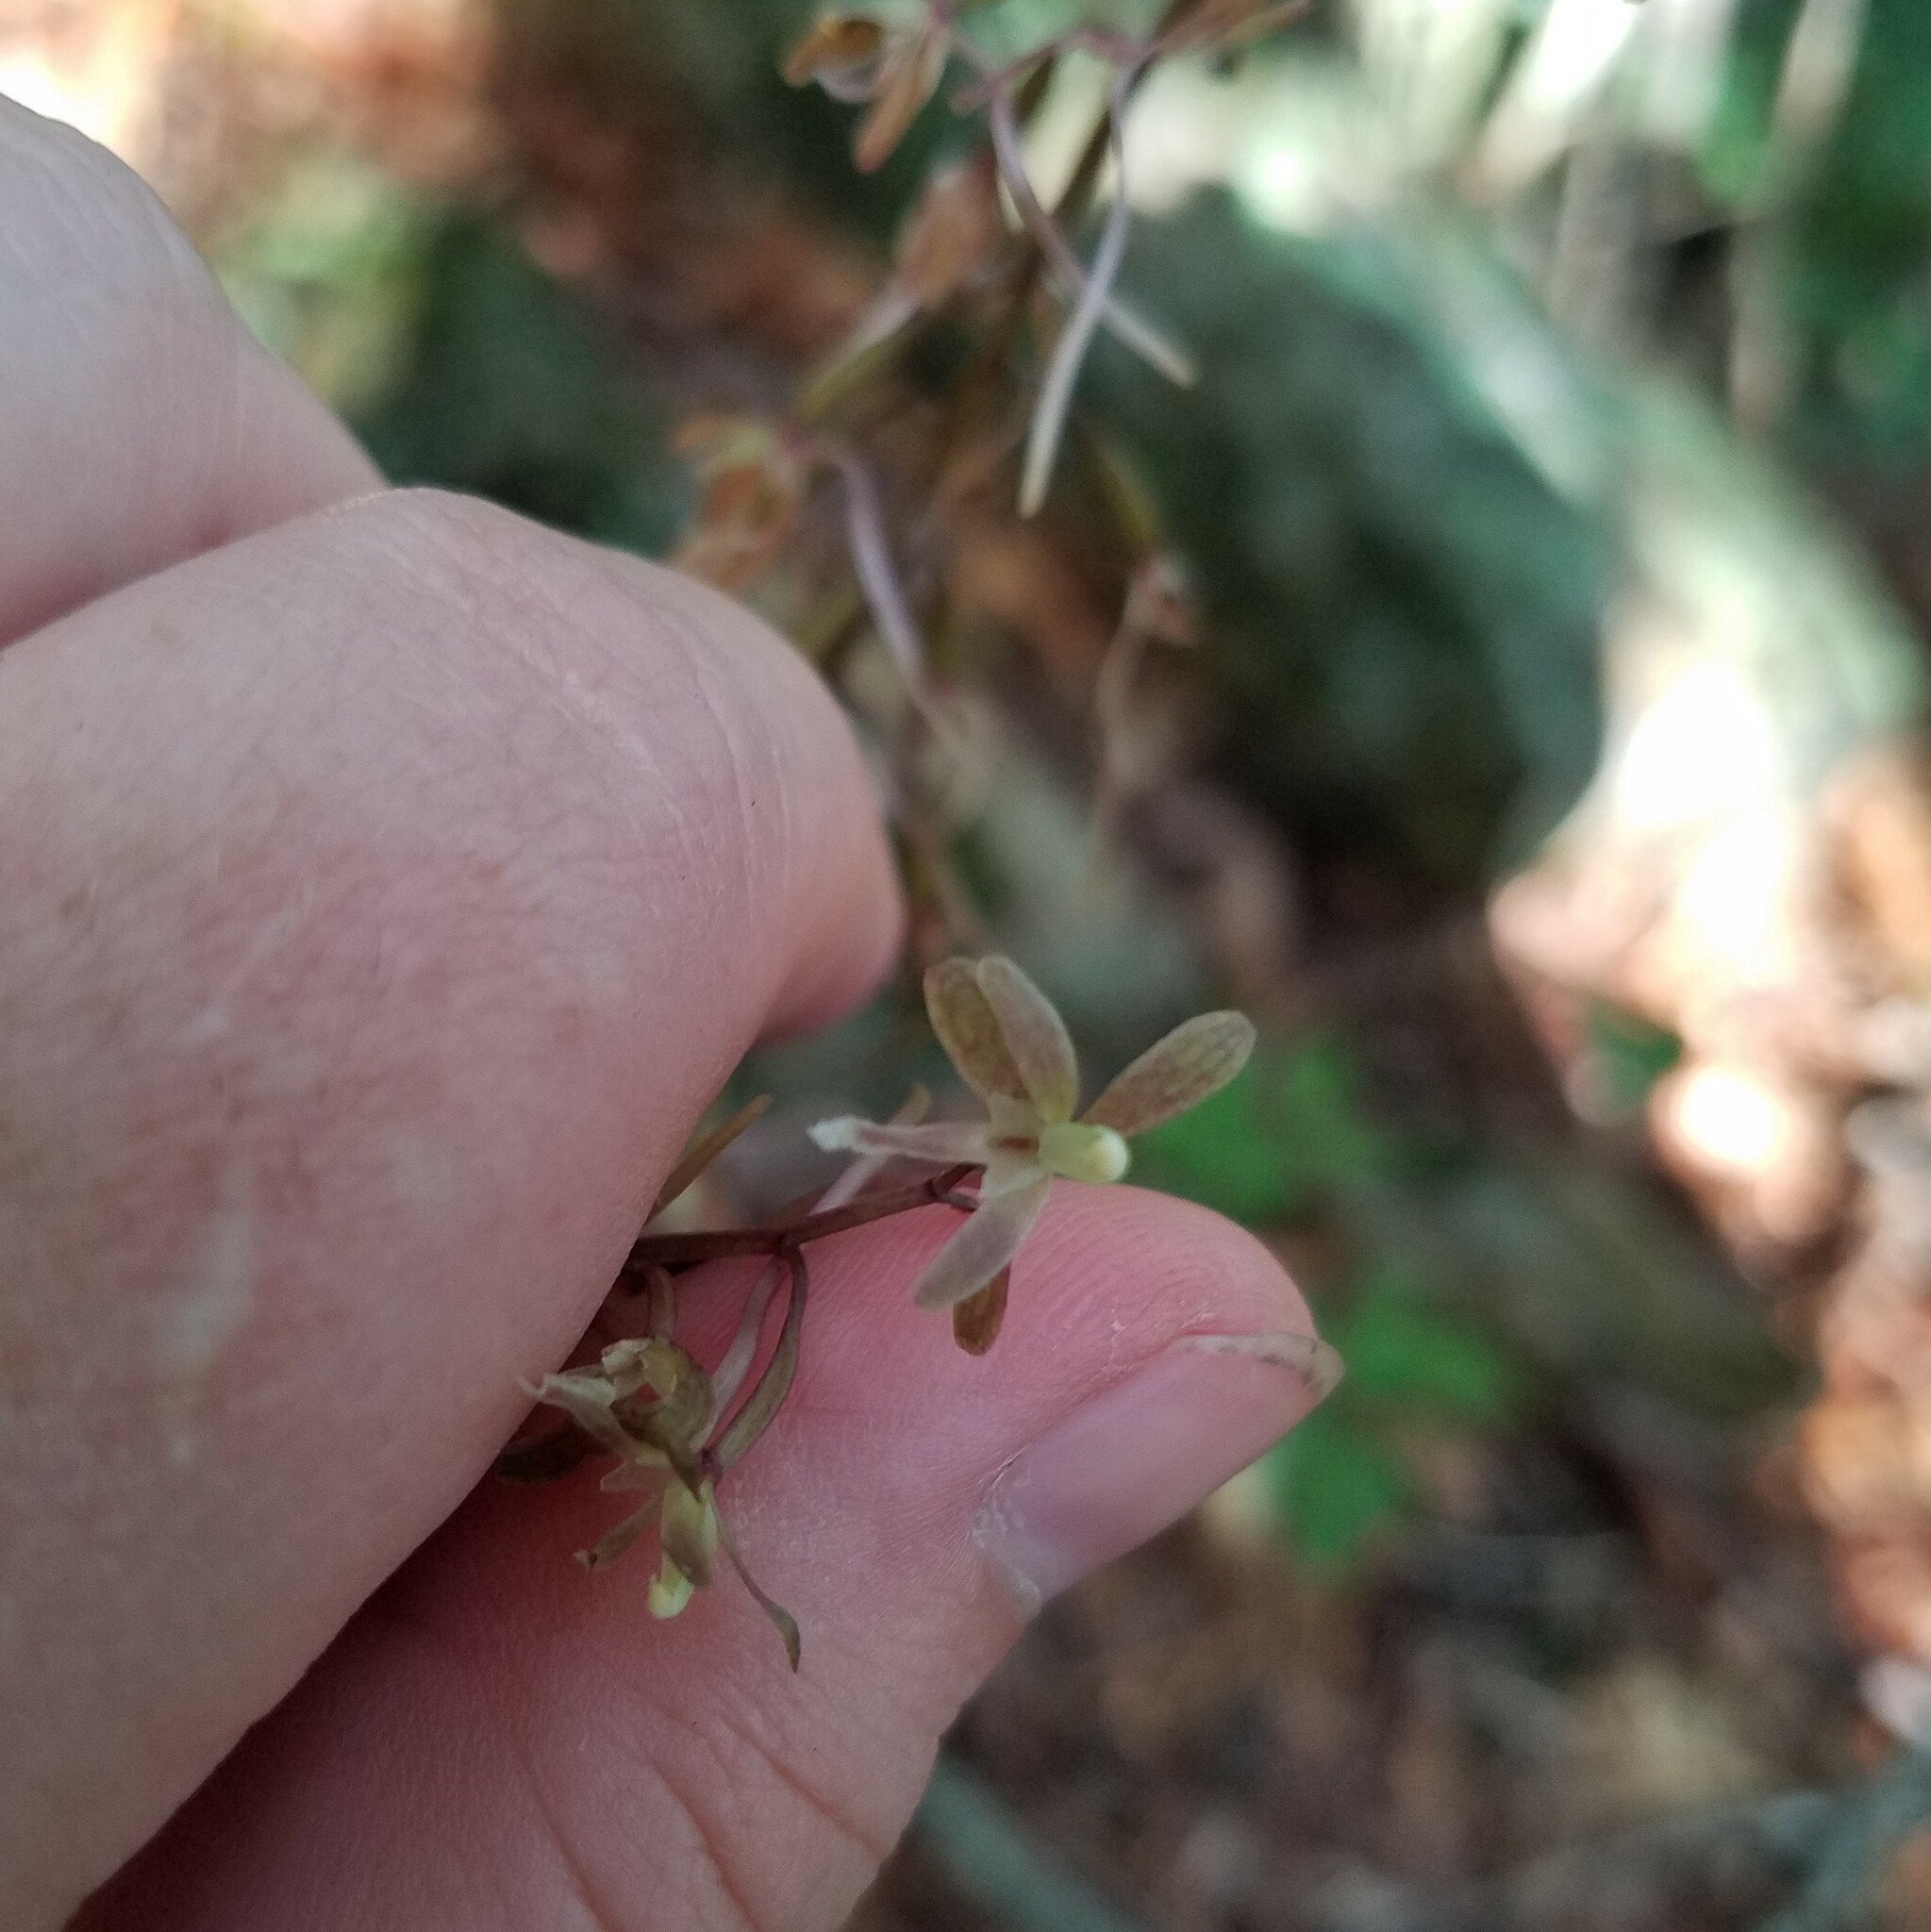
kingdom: Plantae
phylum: Tracheophyta
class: Liliopsida
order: Asparagales
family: Orchidaceae
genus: Tipularia
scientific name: Tipularia discolor
